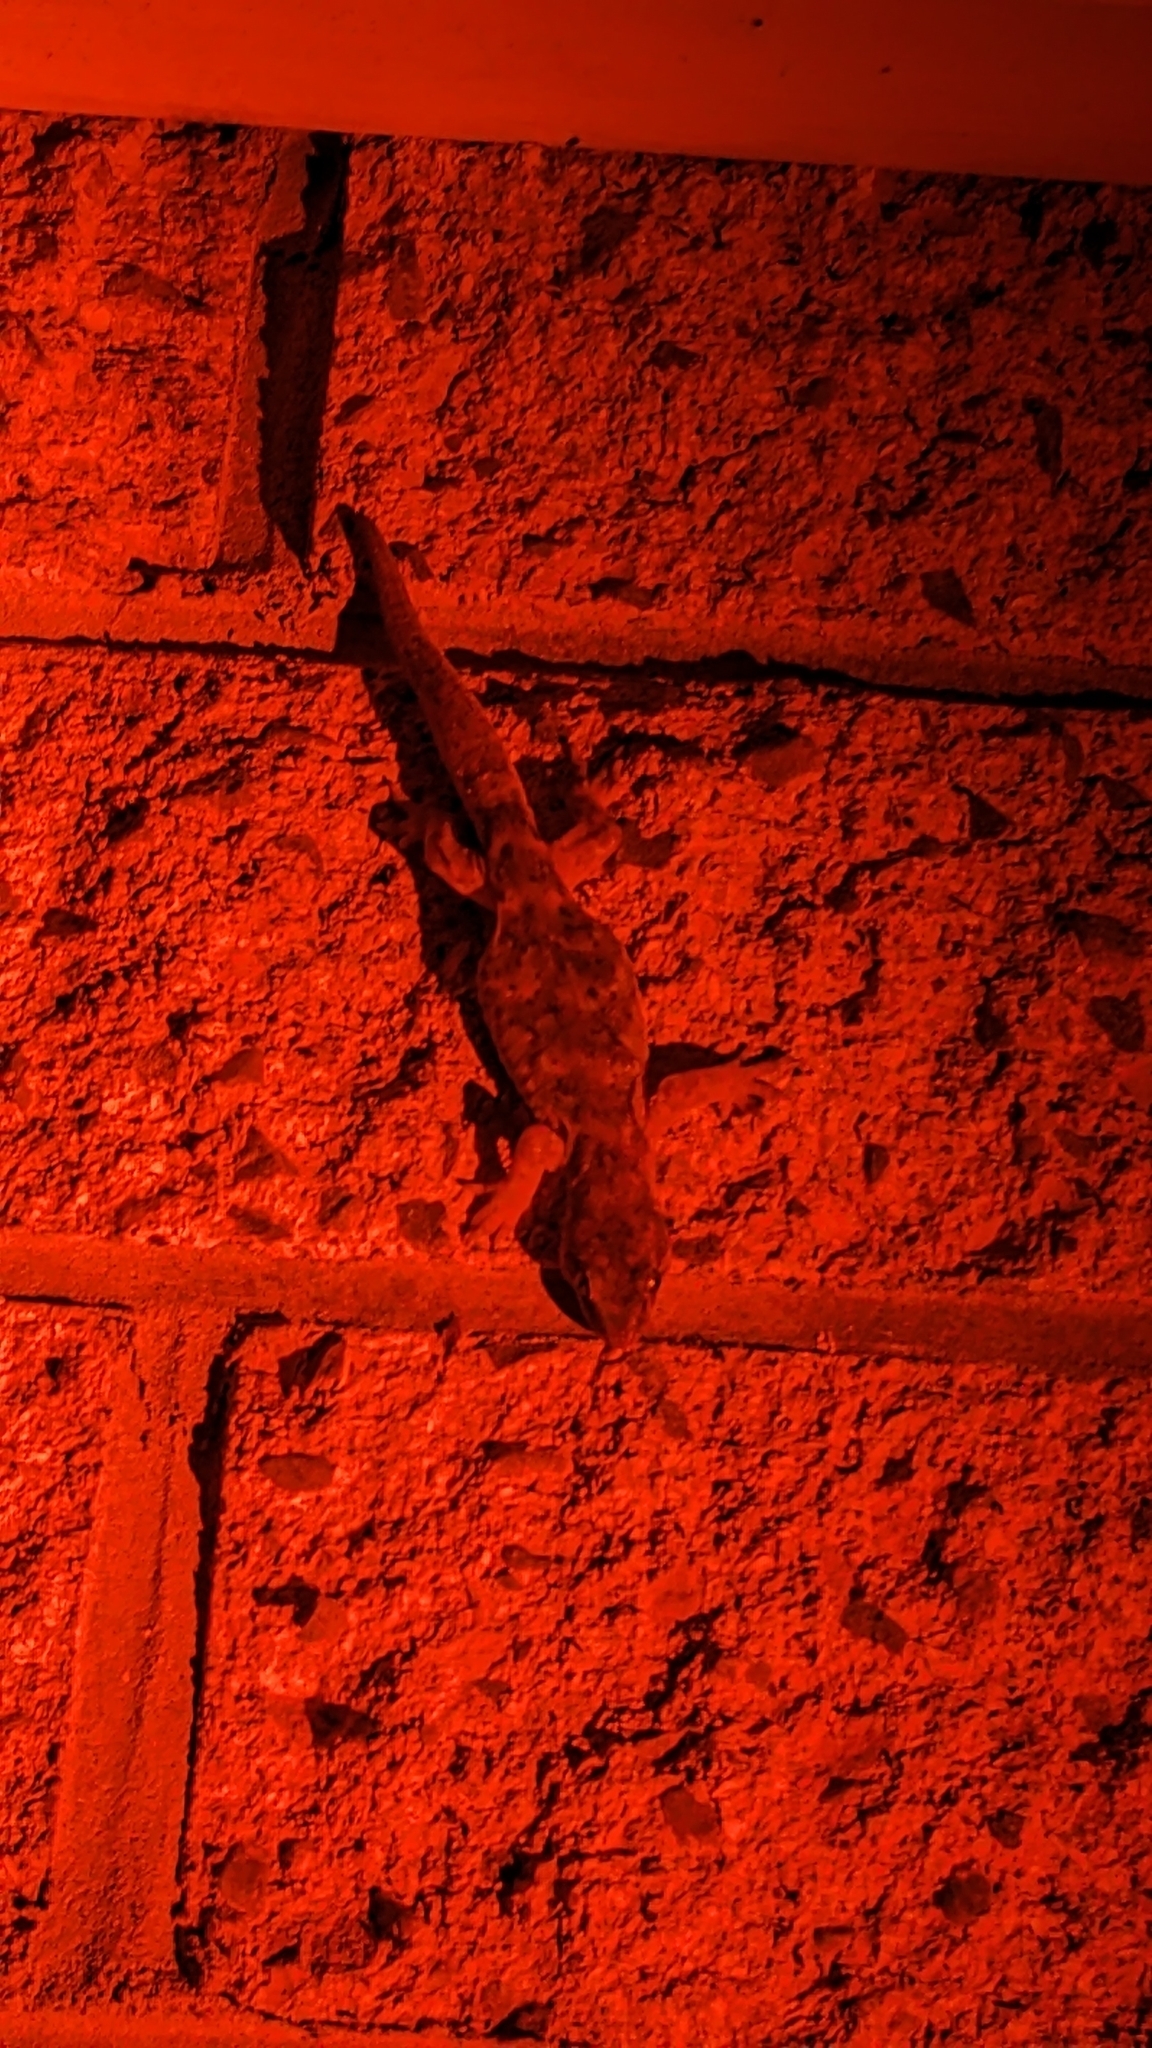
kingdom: Animalia
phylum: Chordata
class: Squamata
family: Diplodactylidae
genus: Woodworthia
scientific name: Woodworthia maculata
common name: Raukawa gecko
